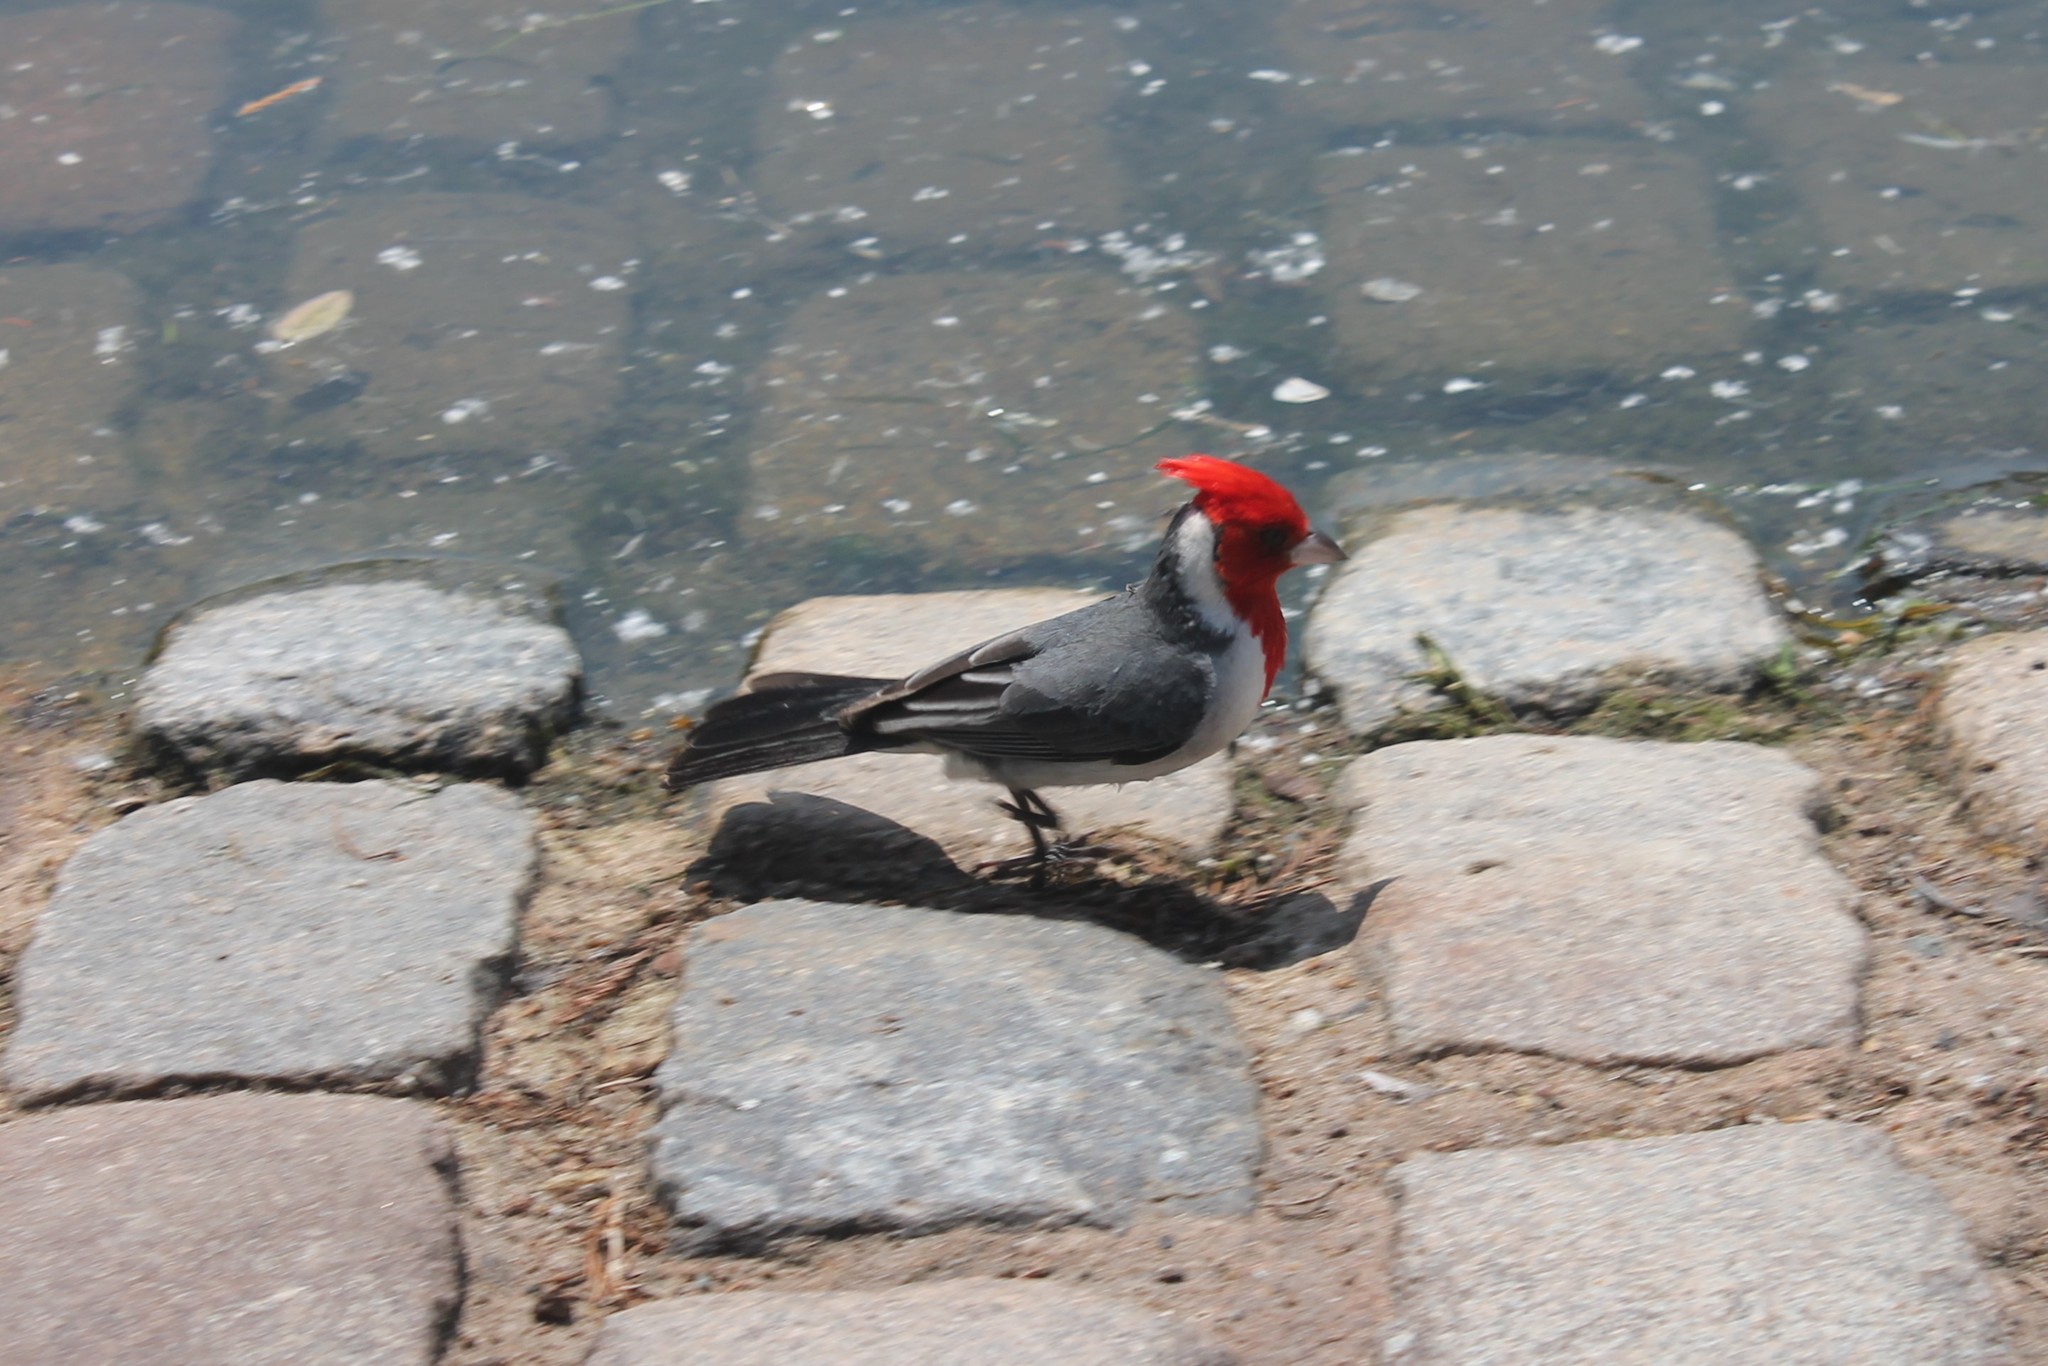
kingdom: Animalia
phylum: Chordata
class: Aves
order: Passeriformes
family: Thraupidae
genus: Paroaria
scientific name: Paroaria coronata
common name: Red-crested cardinal
